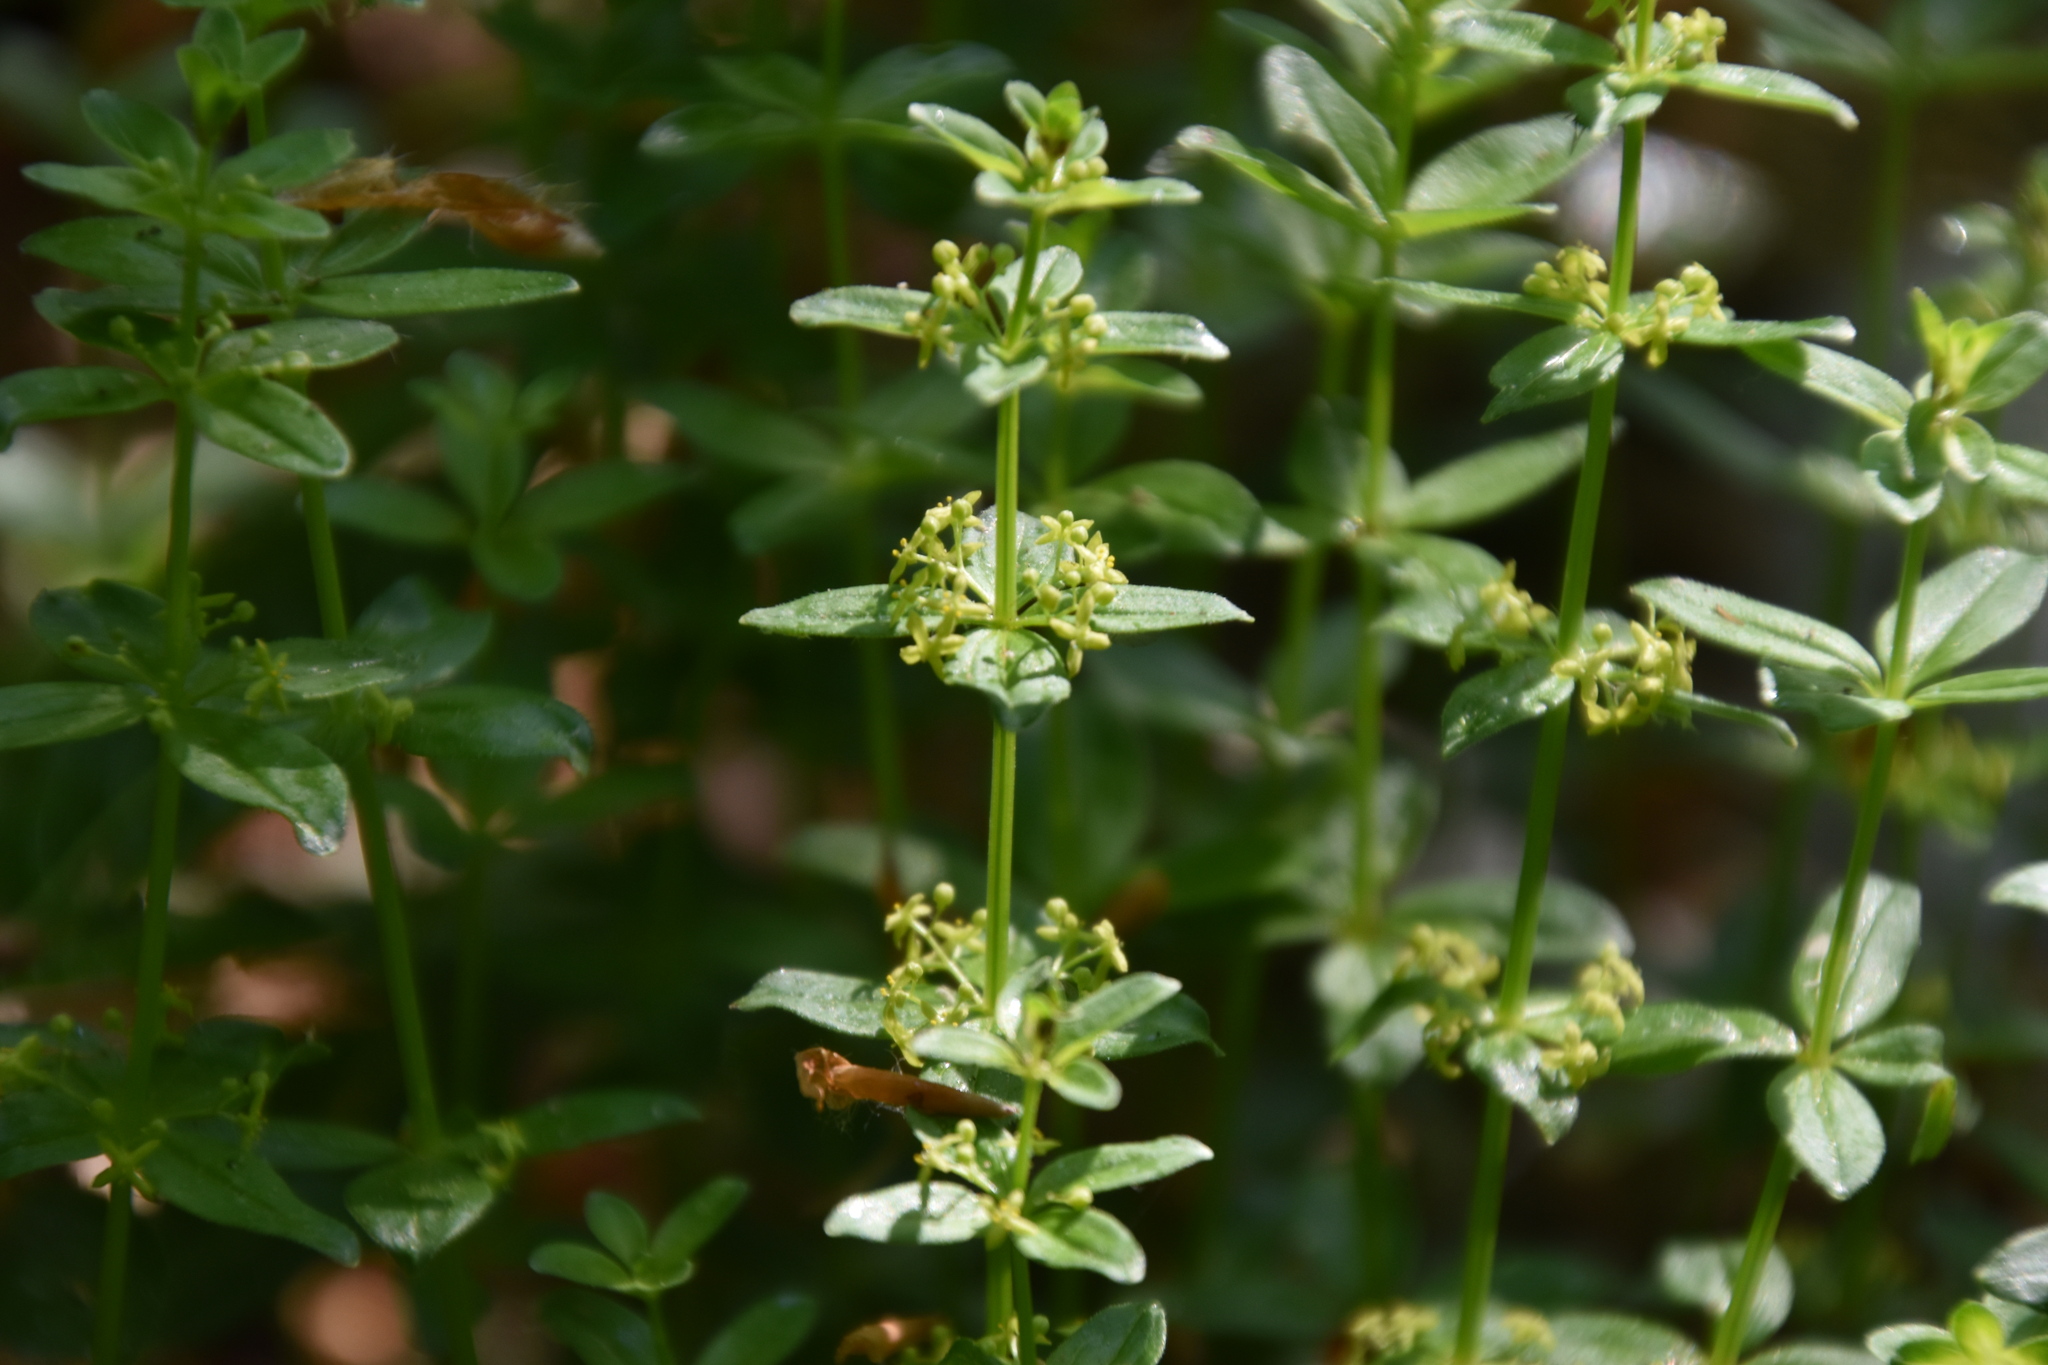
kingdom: Plantae
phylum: Tracheophyta
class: Magnoliopsida
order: Gentianales
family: Rubiaceae
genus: Cruciata
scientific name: Cruciata glabra
